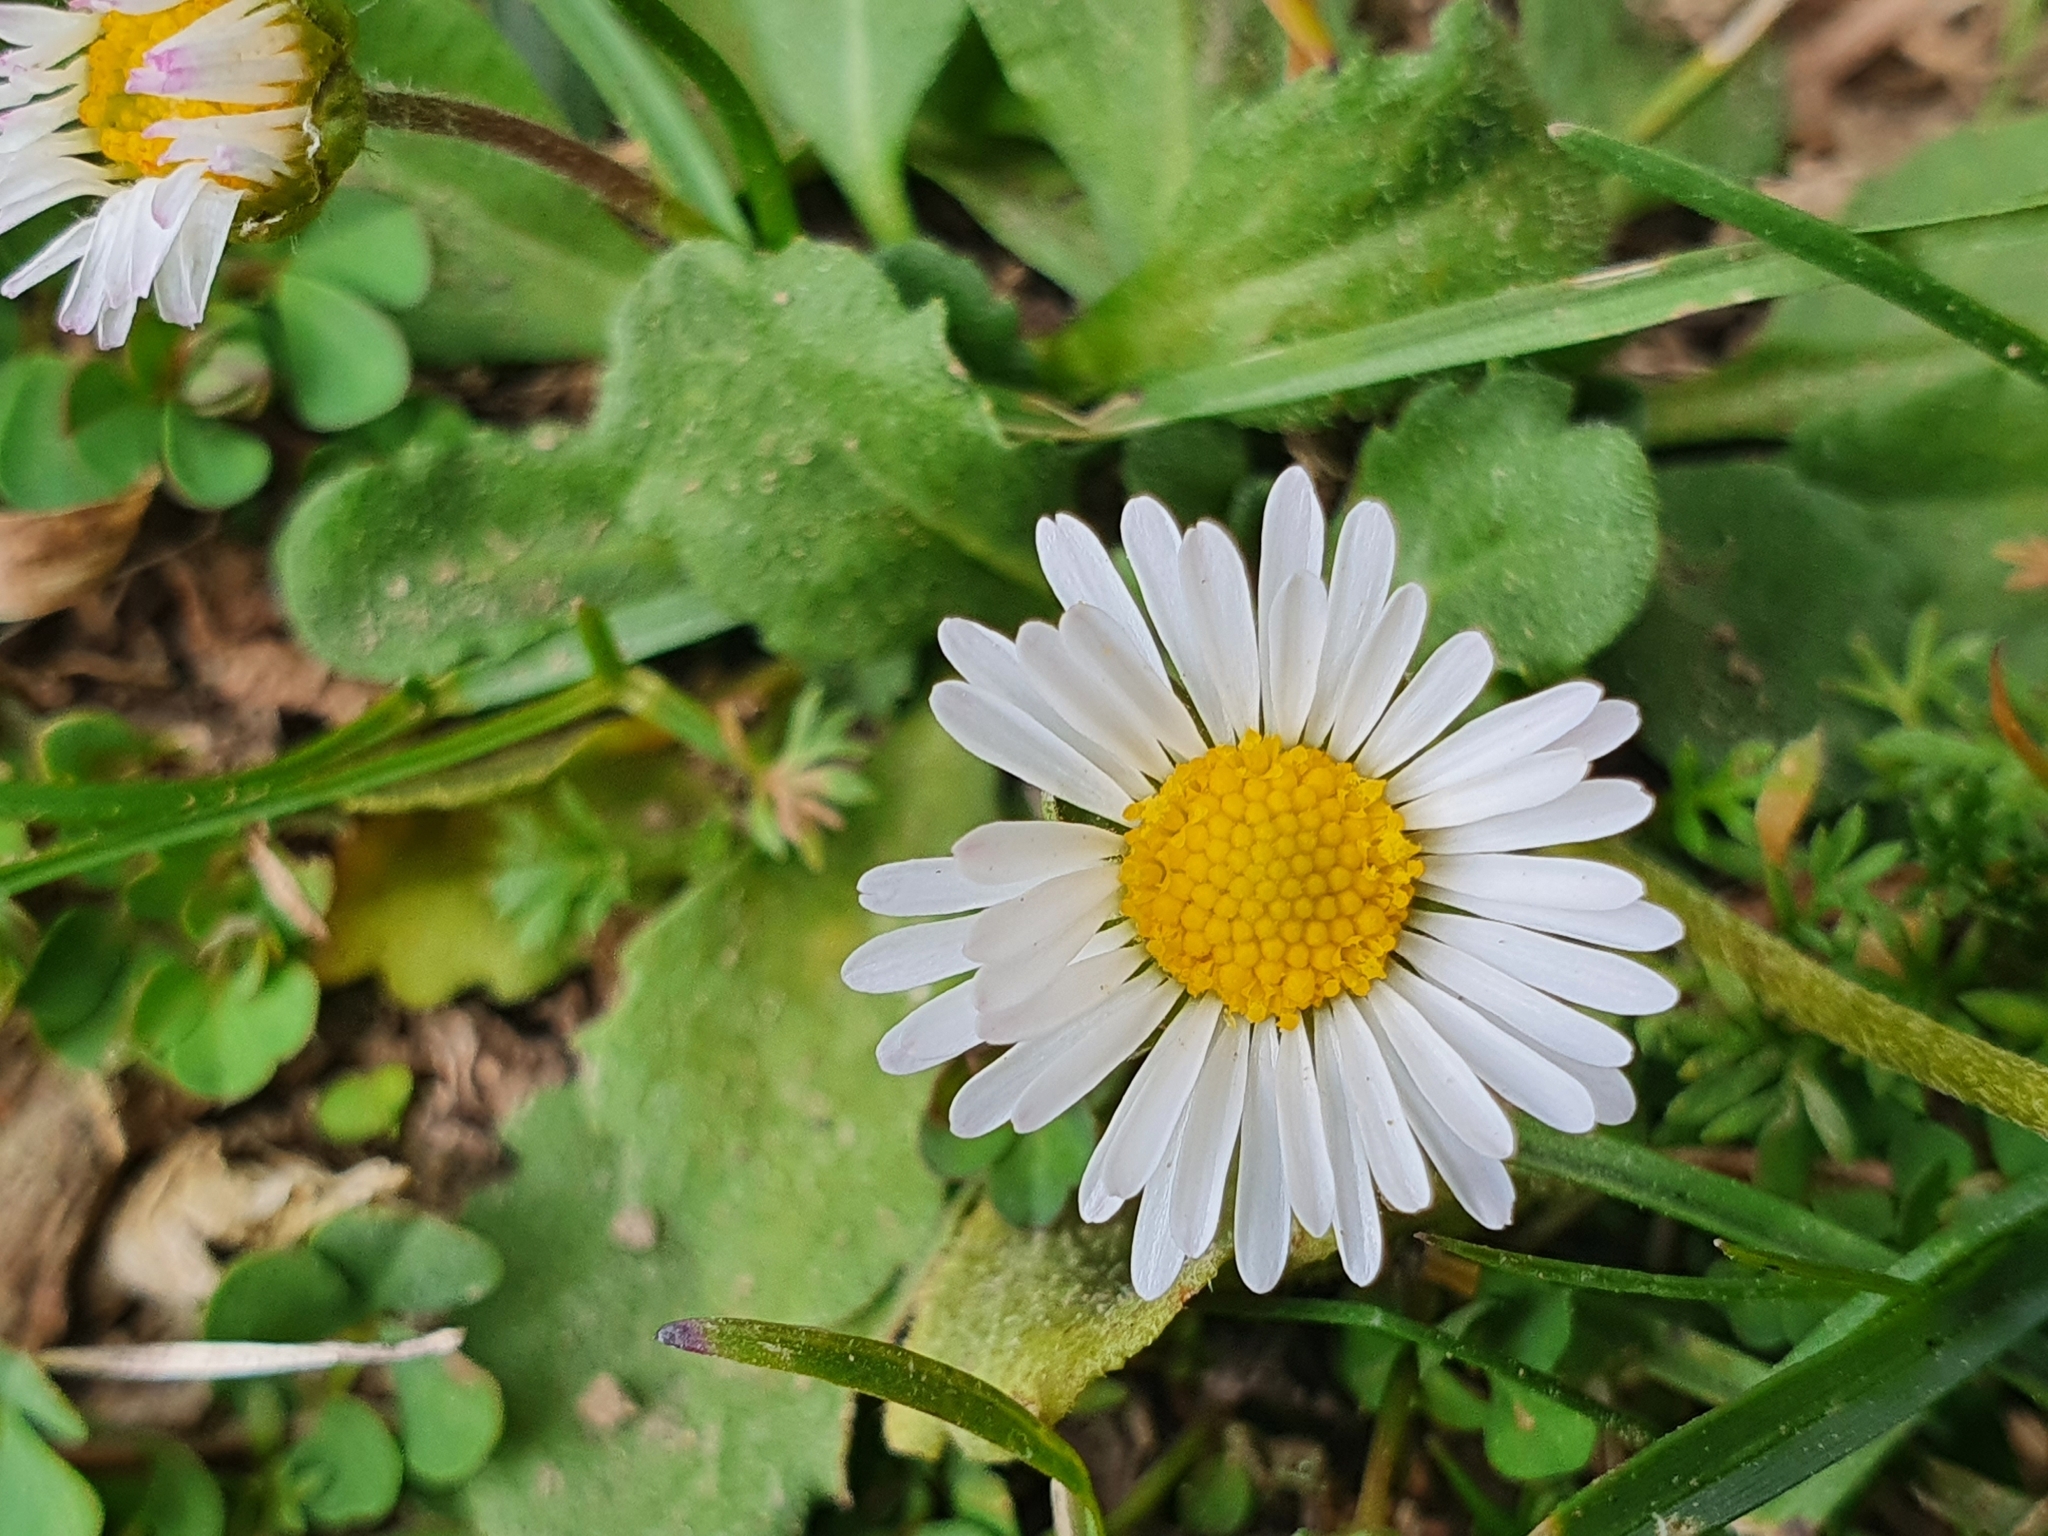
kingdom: Plantae
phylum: Tracheophyta
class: Magnoliopsida
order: Asterales
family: Asteraceae
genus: Bellis
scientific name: Bellis perennis
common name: Lawndaisy
